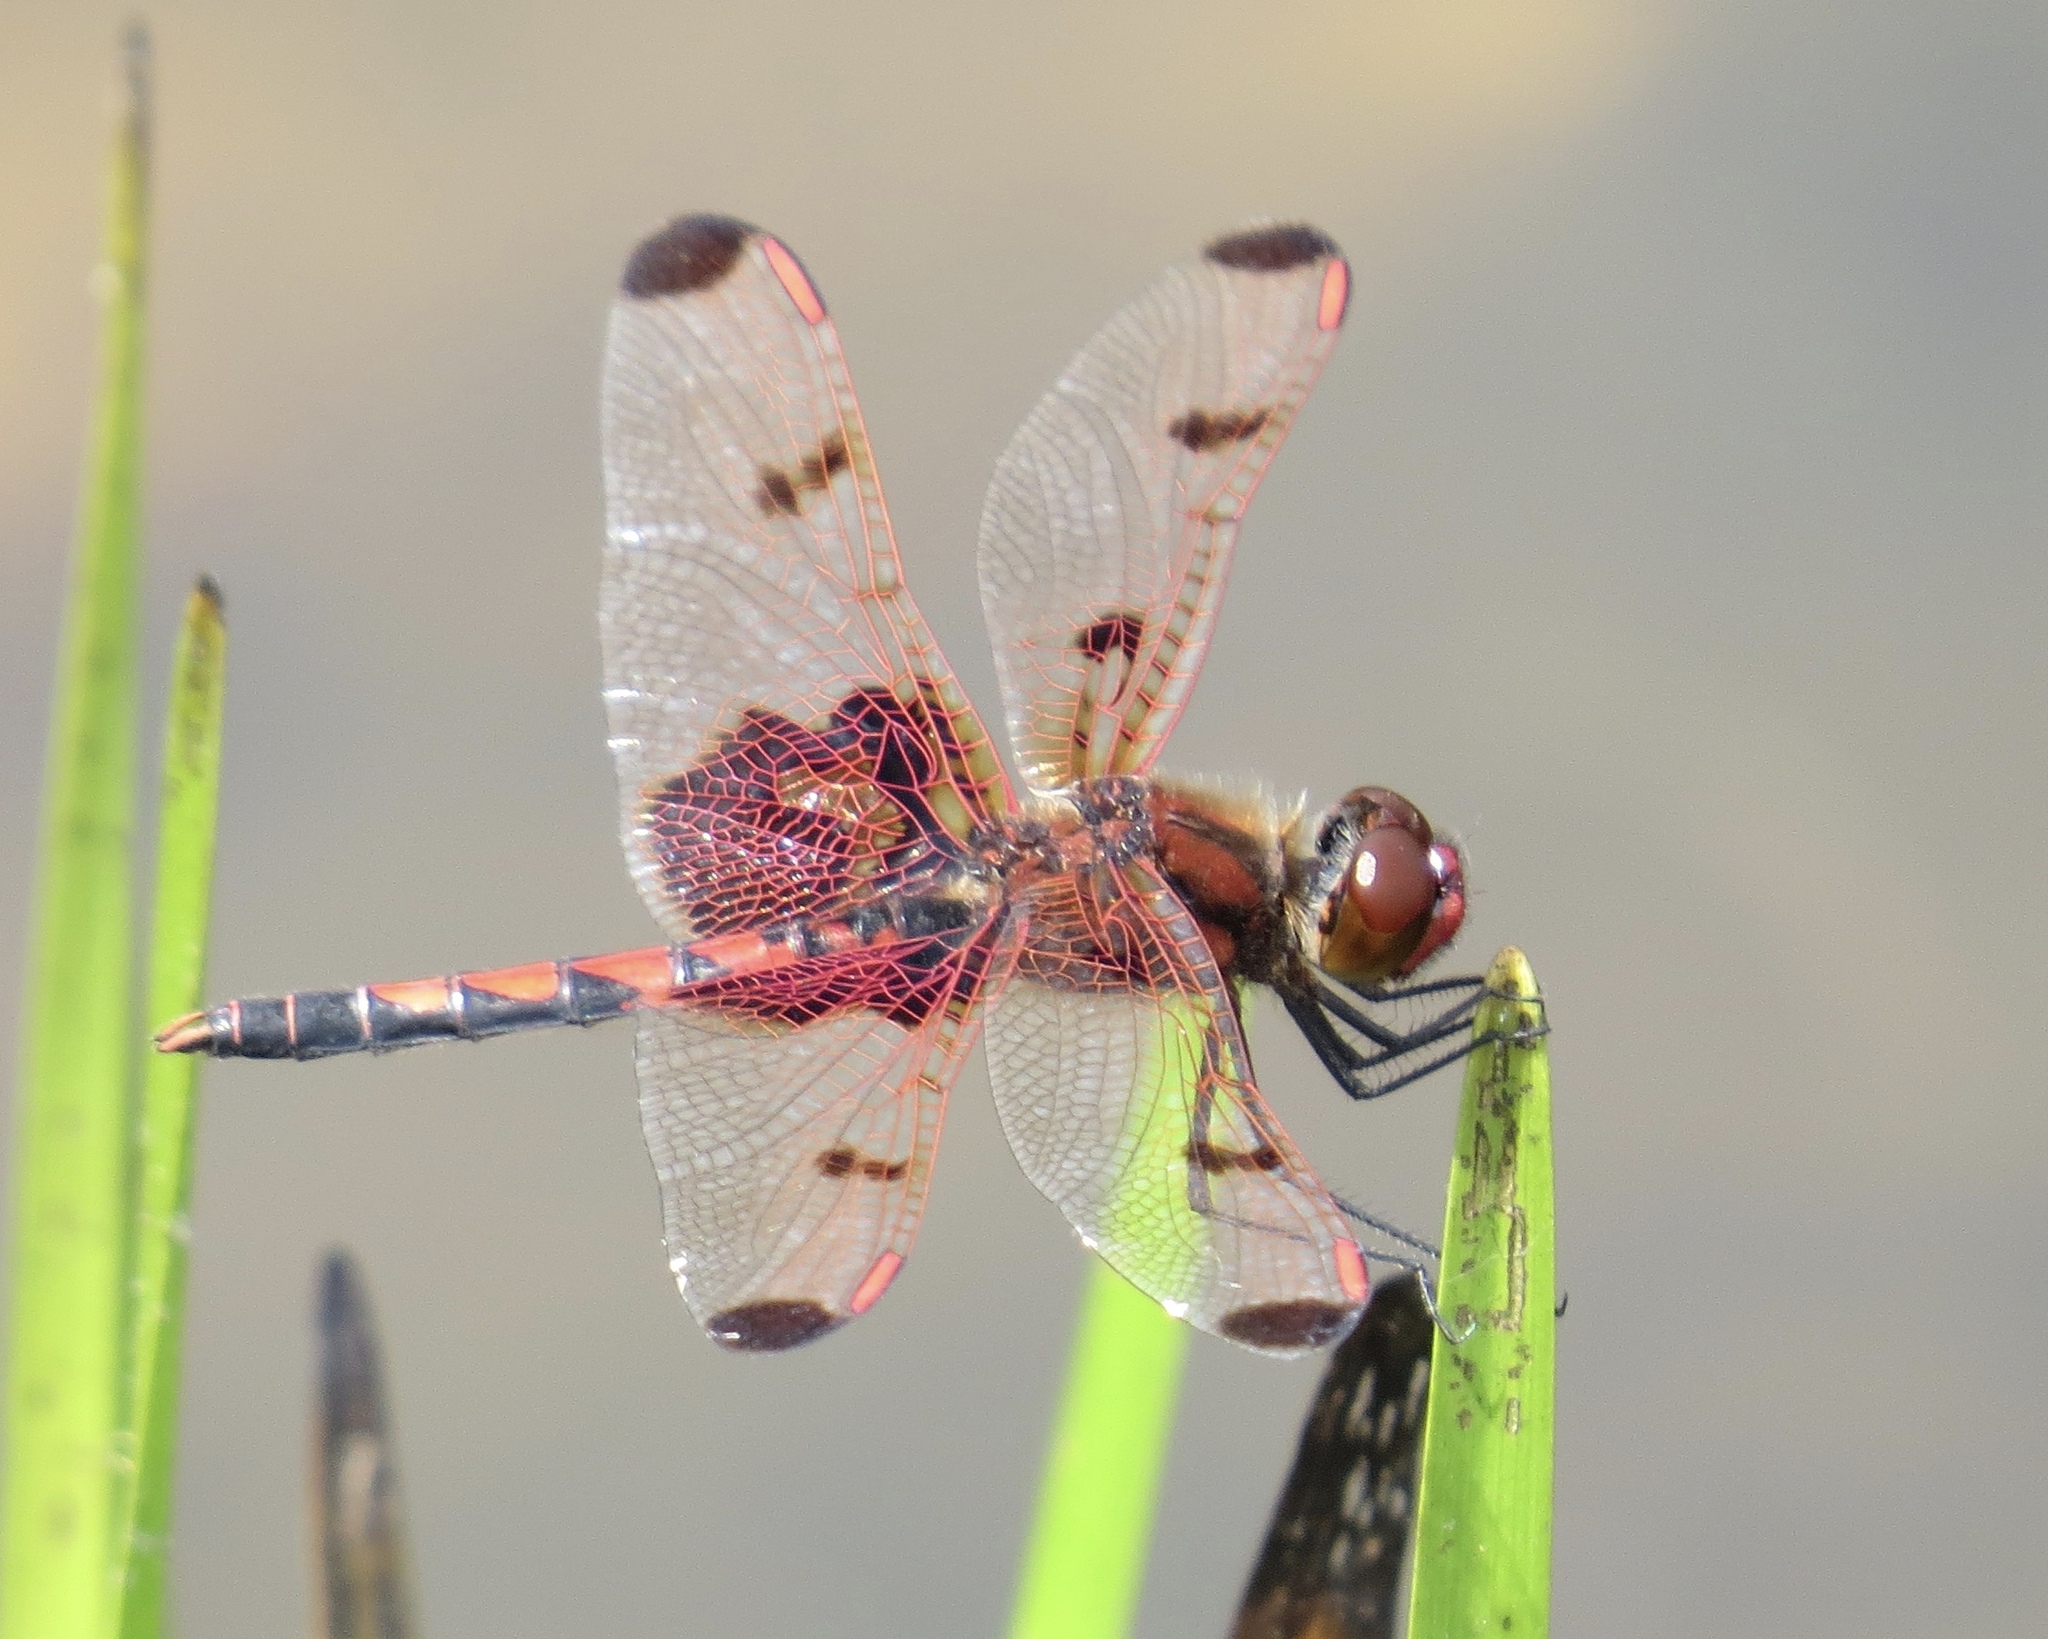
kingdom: Animalia
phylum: Arthropoda
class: Insecta
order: Odonata
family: Libellulidae
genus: Celithemis
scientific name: Celithemis elisa
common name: Calico pennant
